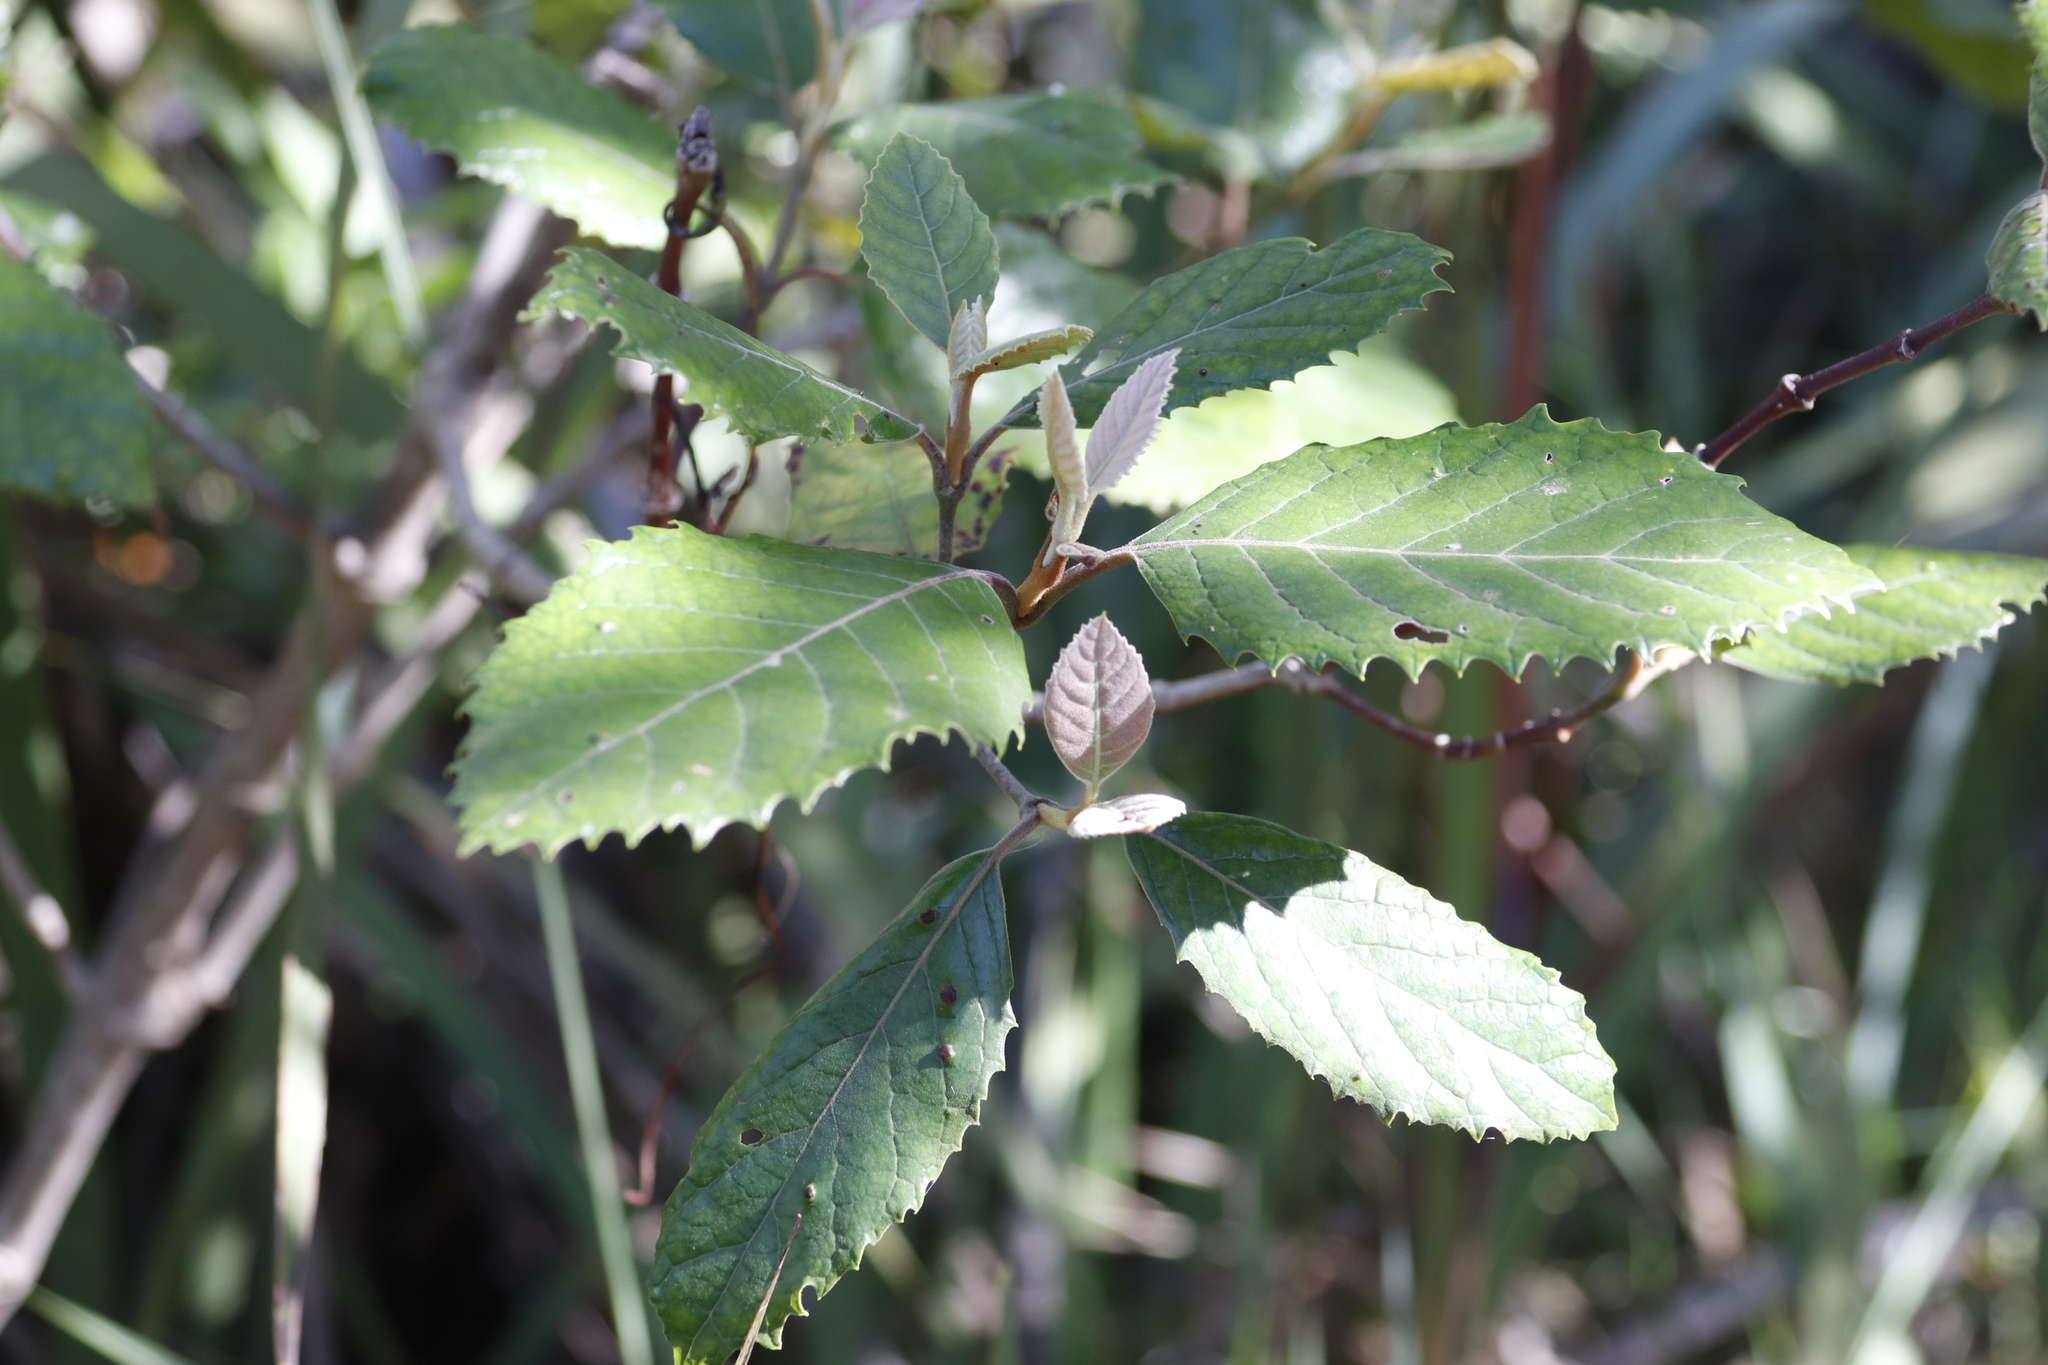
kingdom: Plantae
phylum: Tracheophyta
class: Magnoliopsida
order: Cornales
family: Curtisiaceae
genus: Curtisia
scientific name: Curtisia dentata
